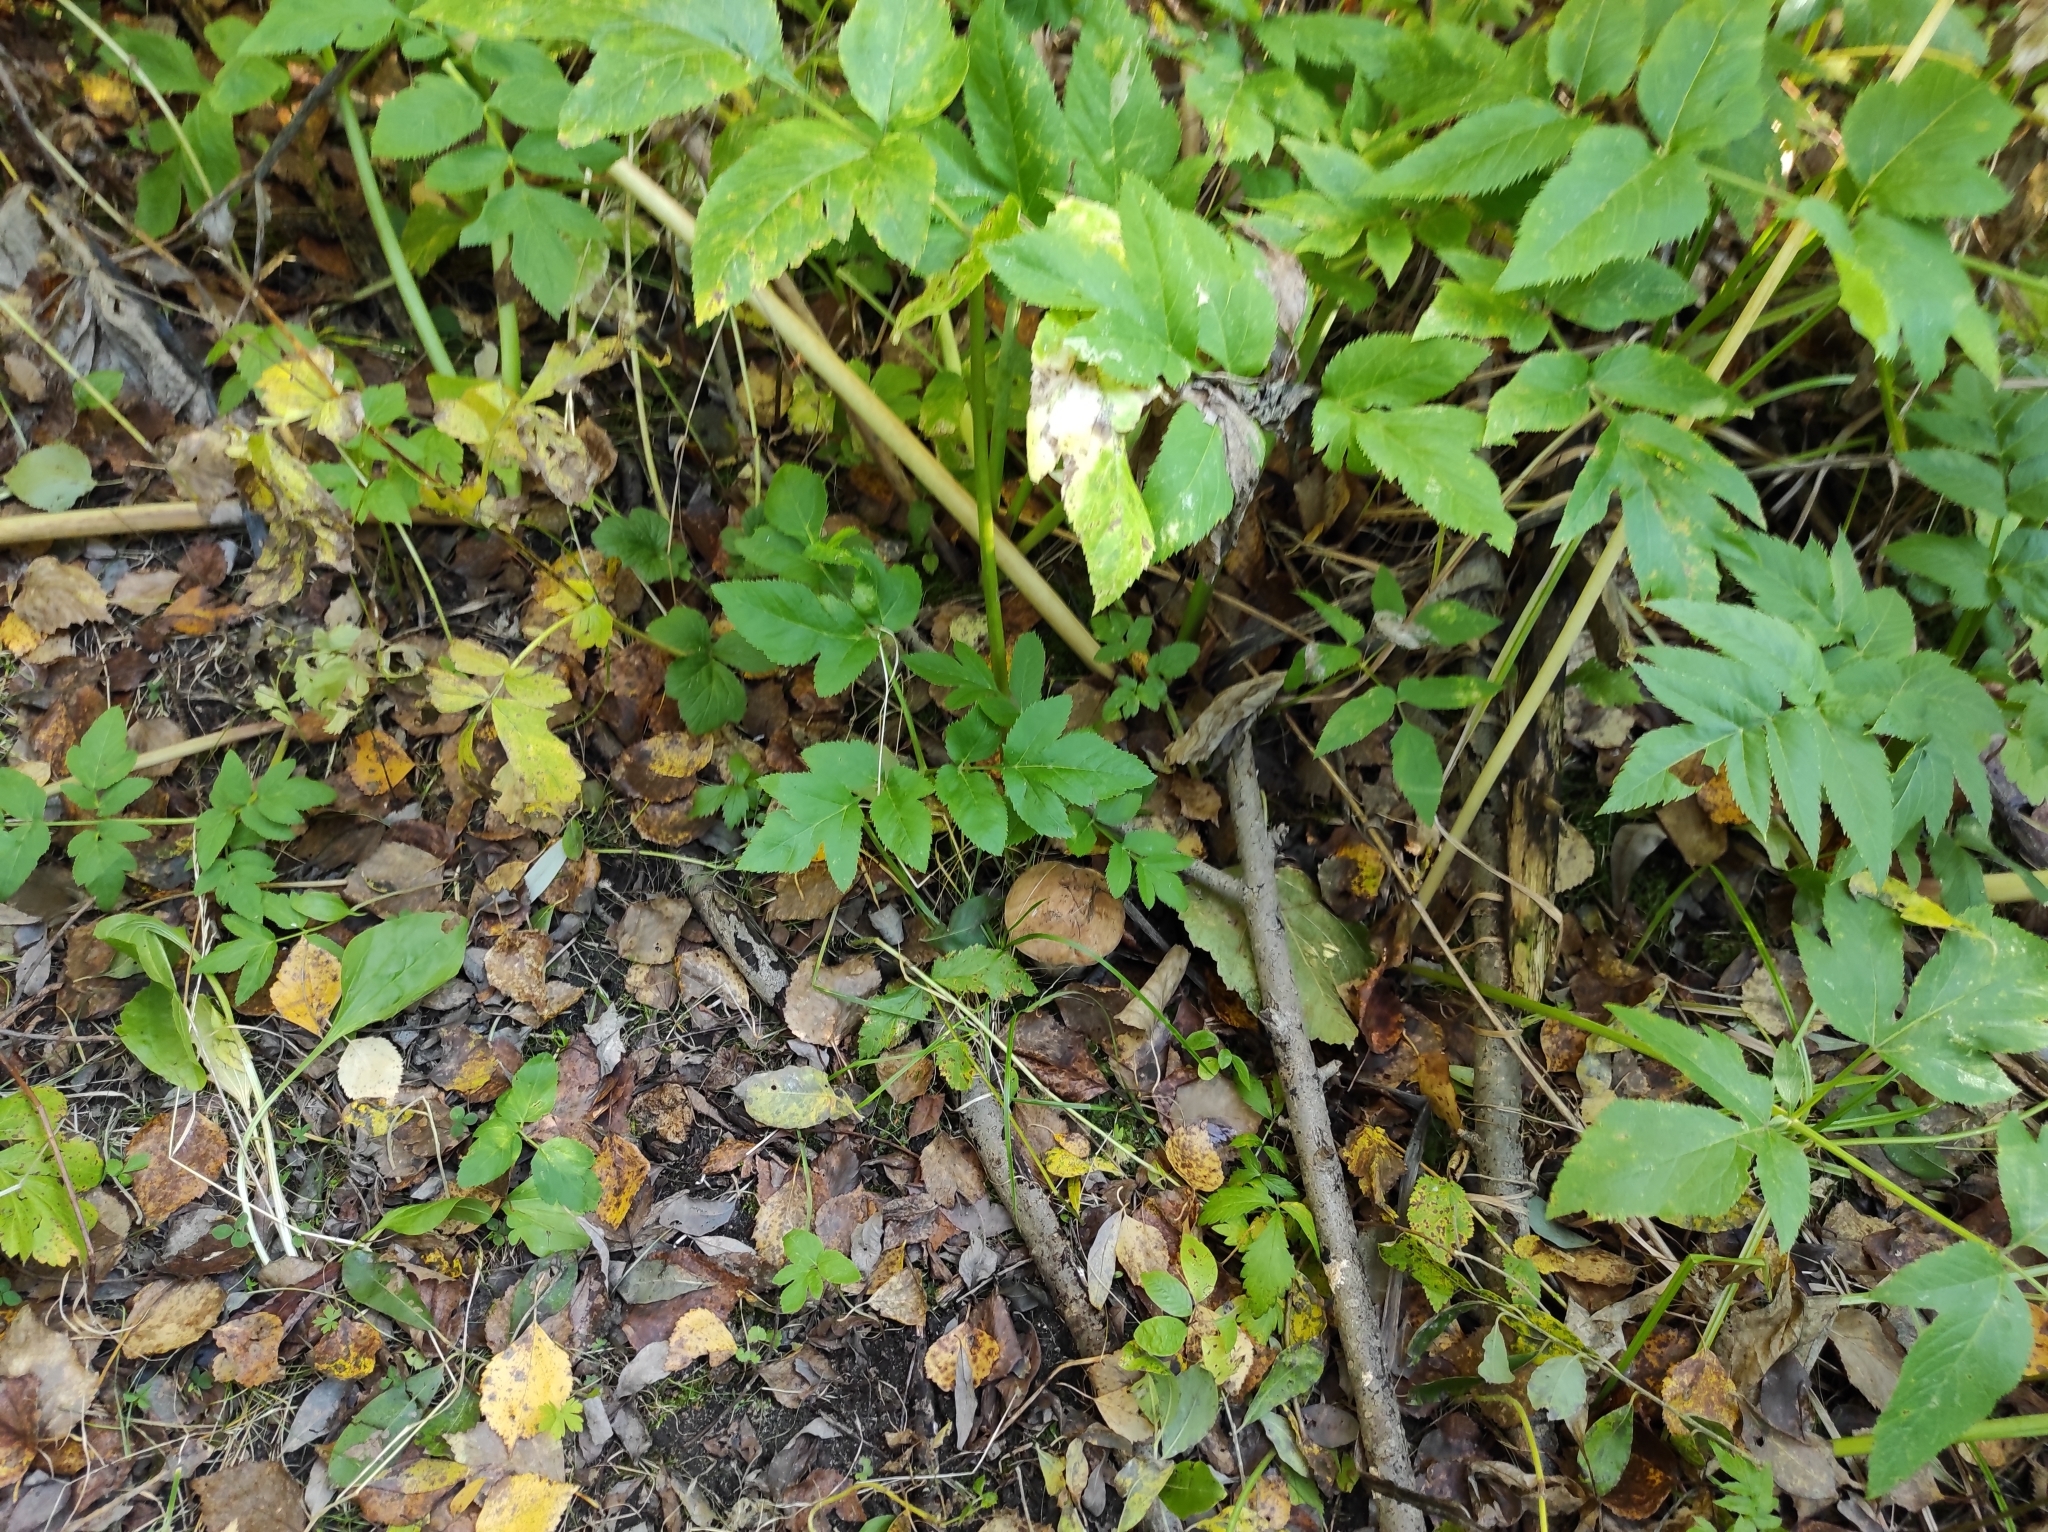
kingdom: Fungi
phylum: Basidiomycota
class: Agaricomycetes
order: Boletales
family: Boletaceae
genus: Leccinum
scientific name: Leccinum scabrum
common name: Blushing bolete
